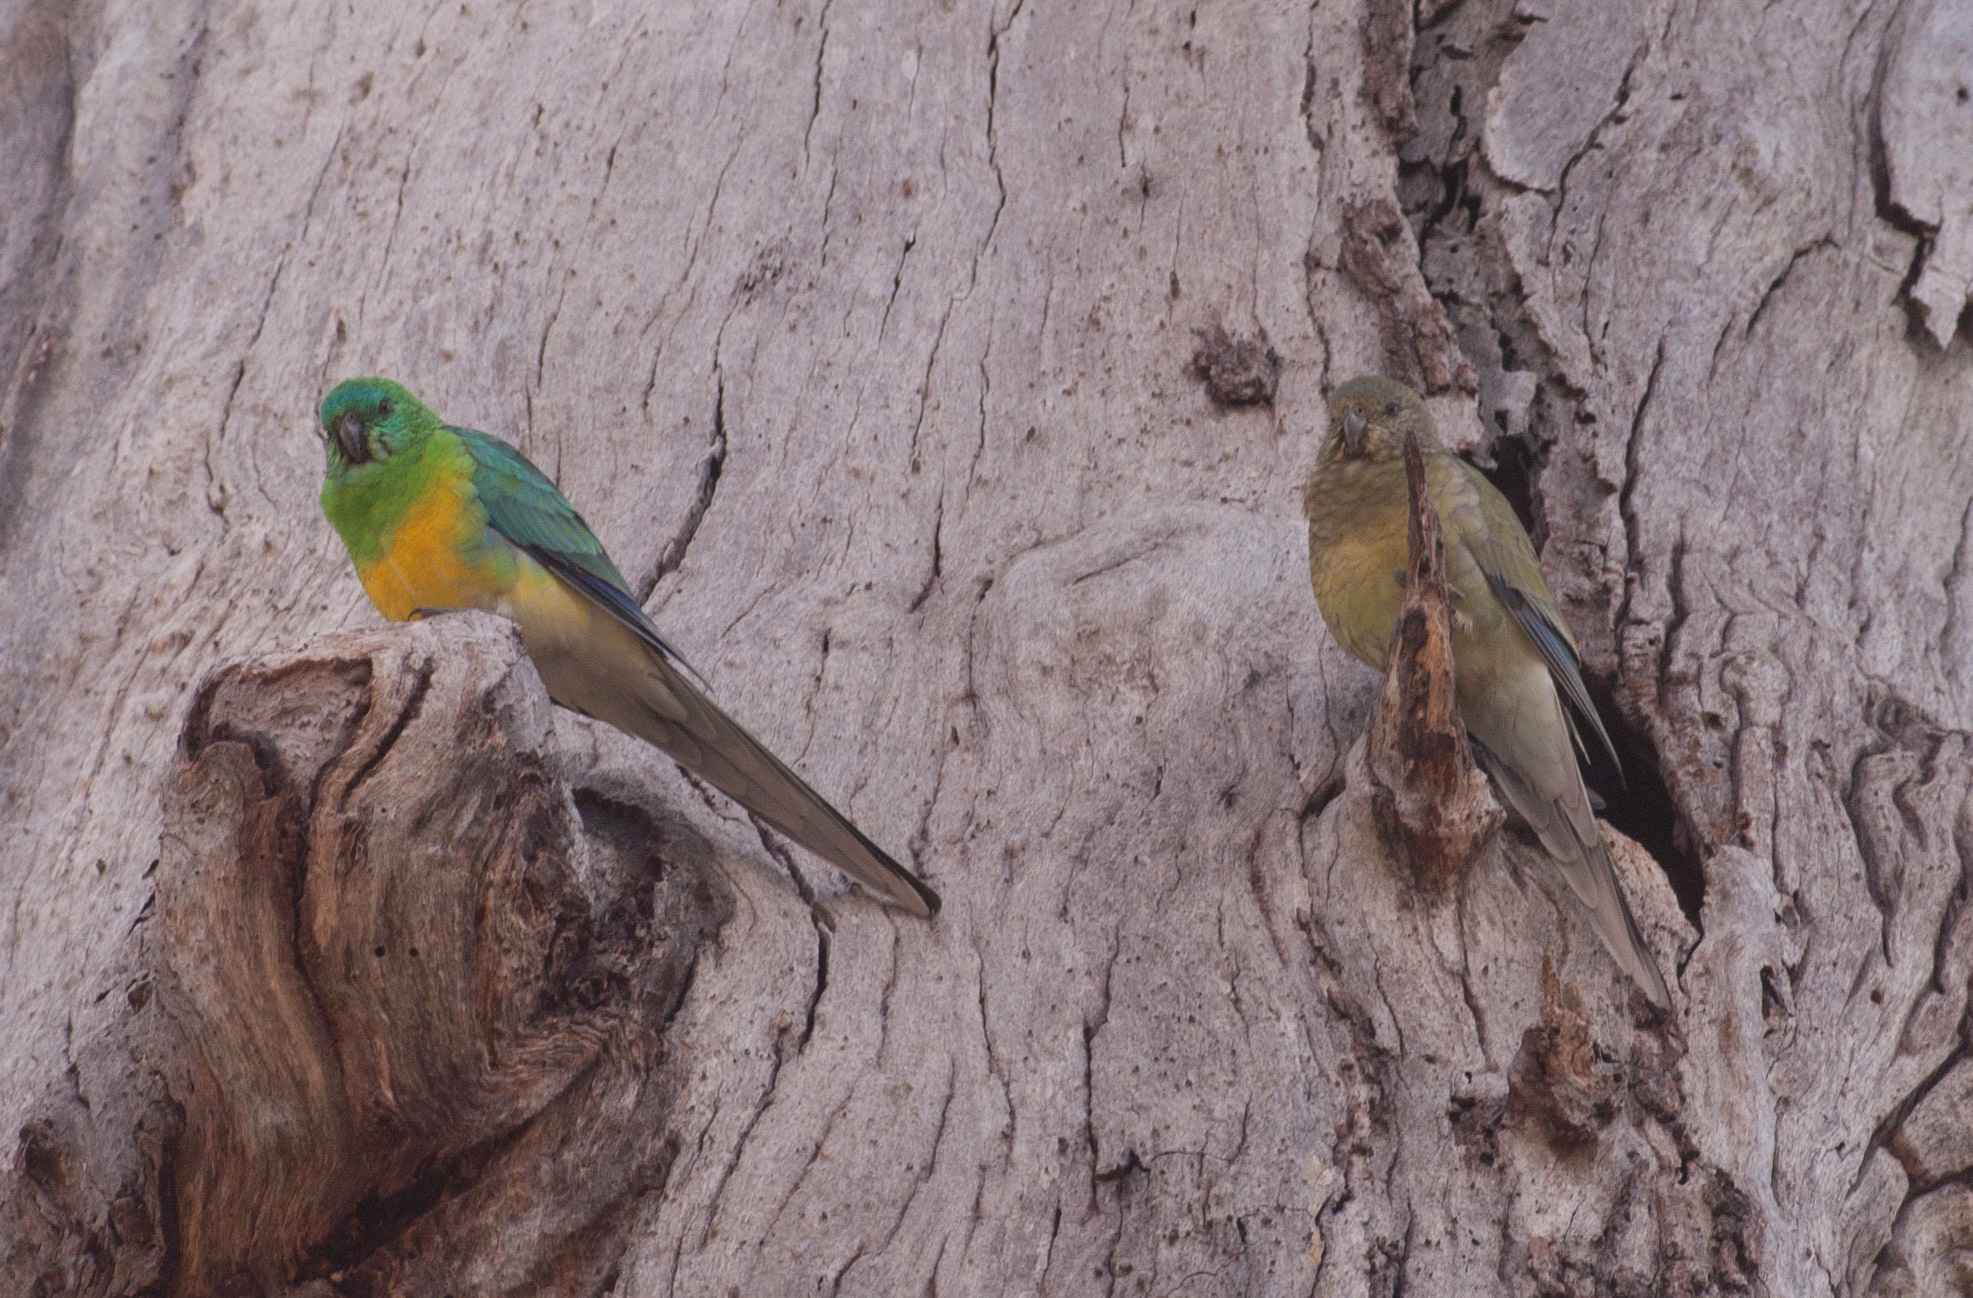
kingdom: Animalia
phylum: Chordata
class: Aves
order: Psittaciformes
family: Psittacidae
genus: Psephotus
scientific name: Psephotus haematonotus
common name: Red-rumped parrot
